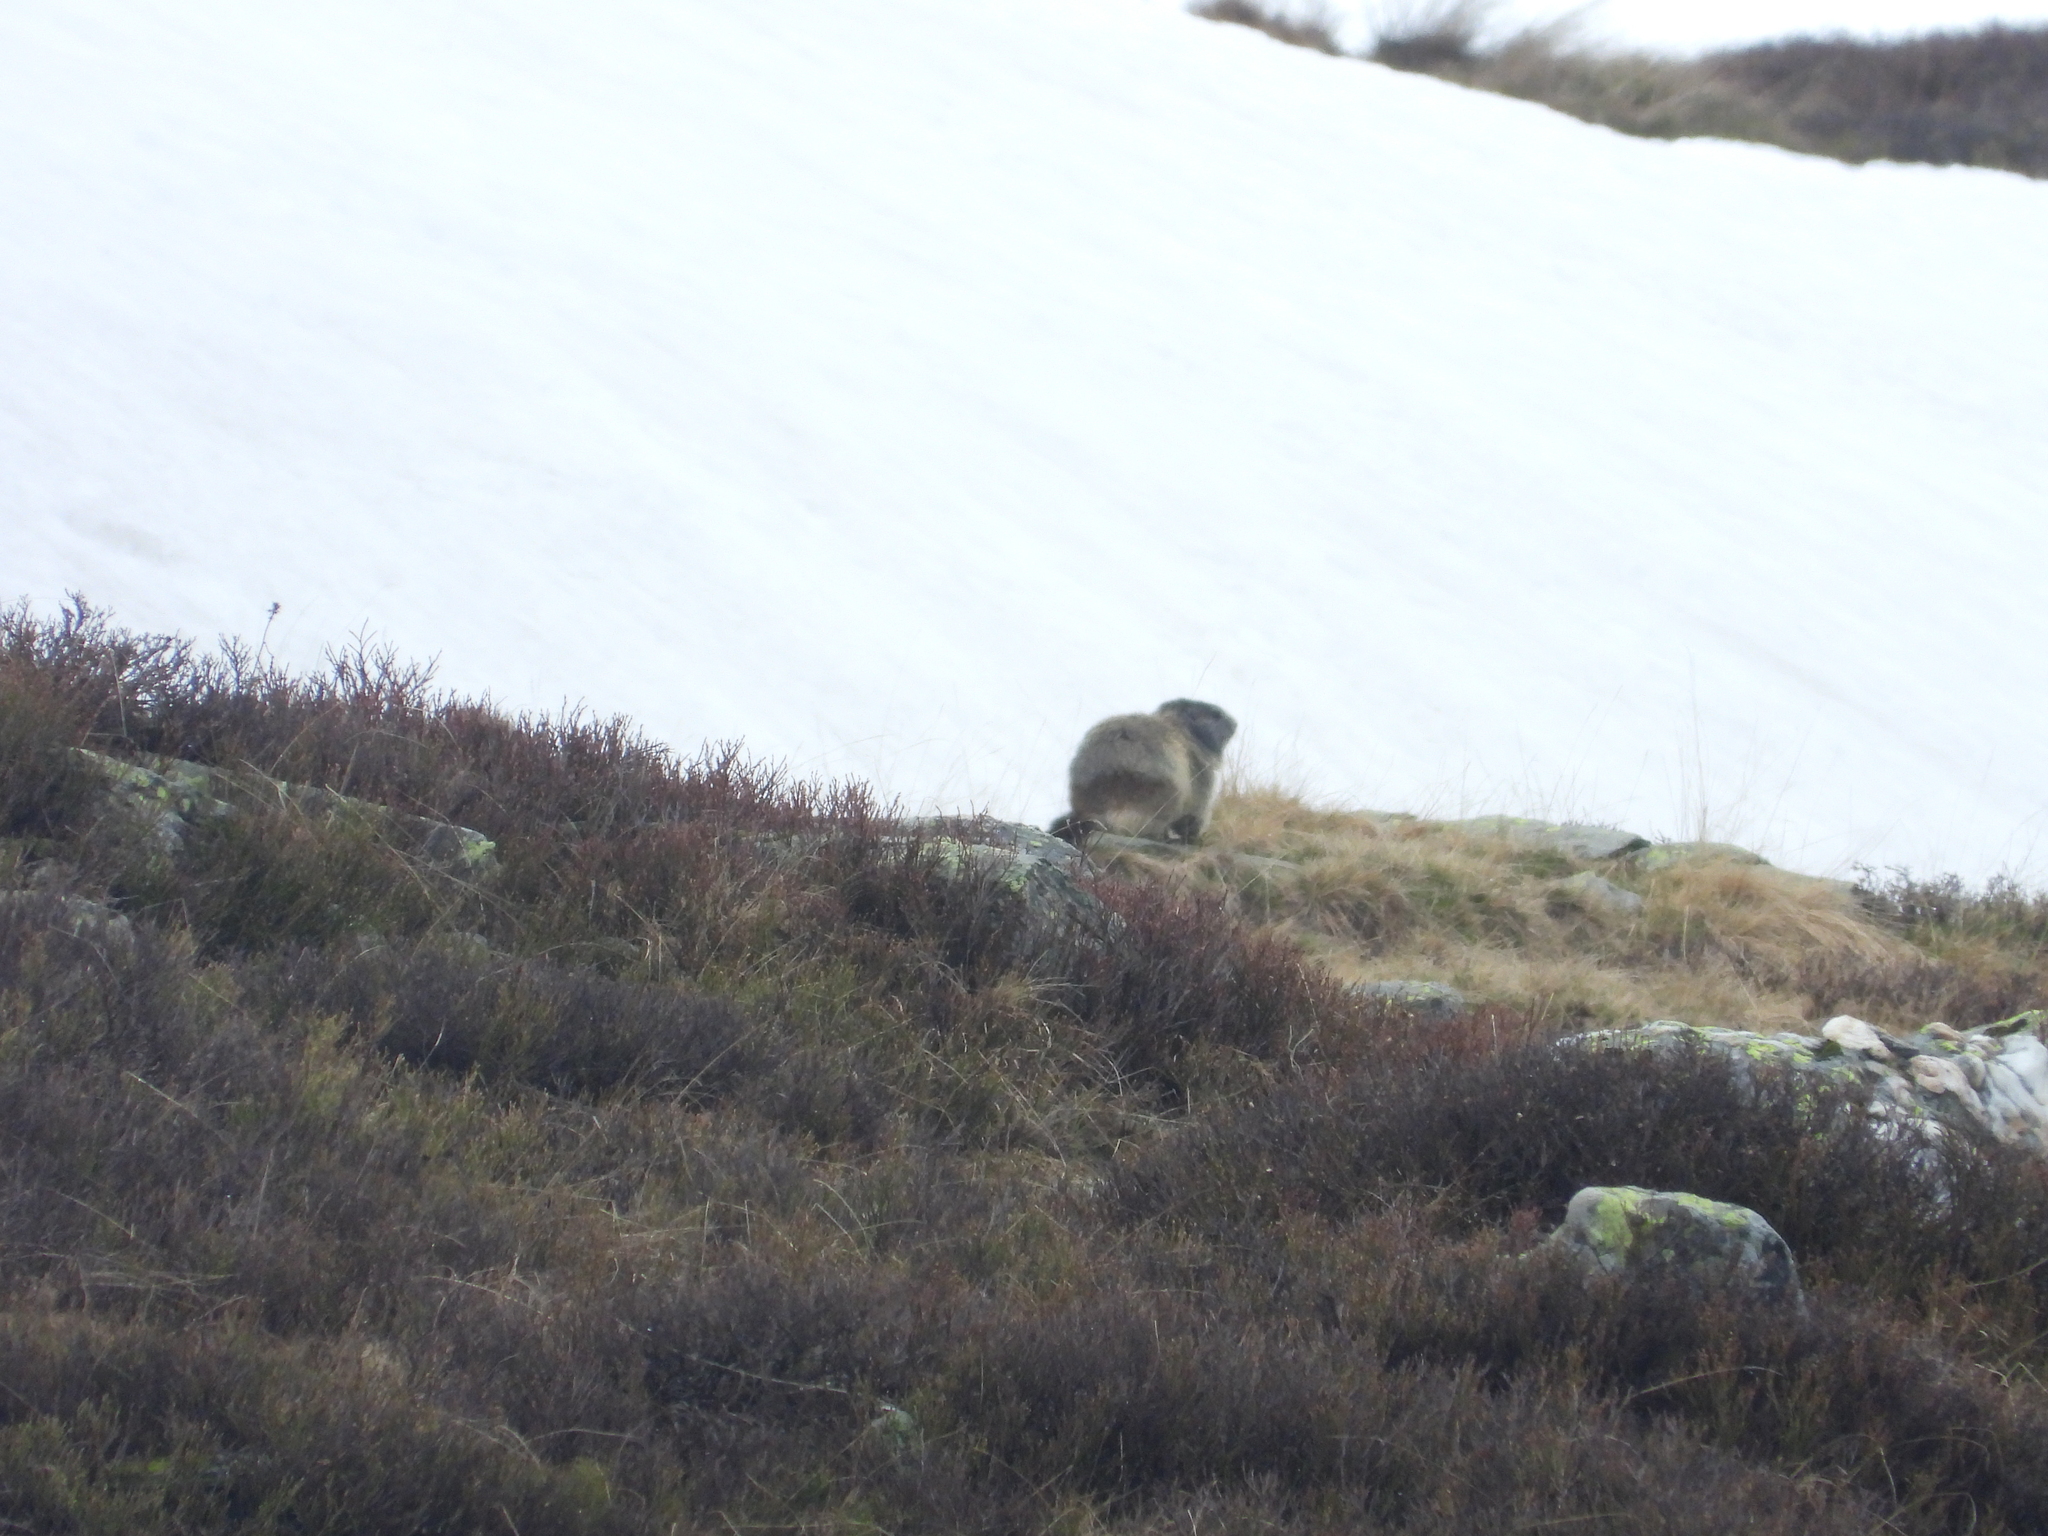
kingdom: Animalia
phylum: Chordata
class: Mammalia
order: Rodentia
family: Sciuridae
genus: Marmota
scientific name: Marmota marmota
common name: Alpine marmot
